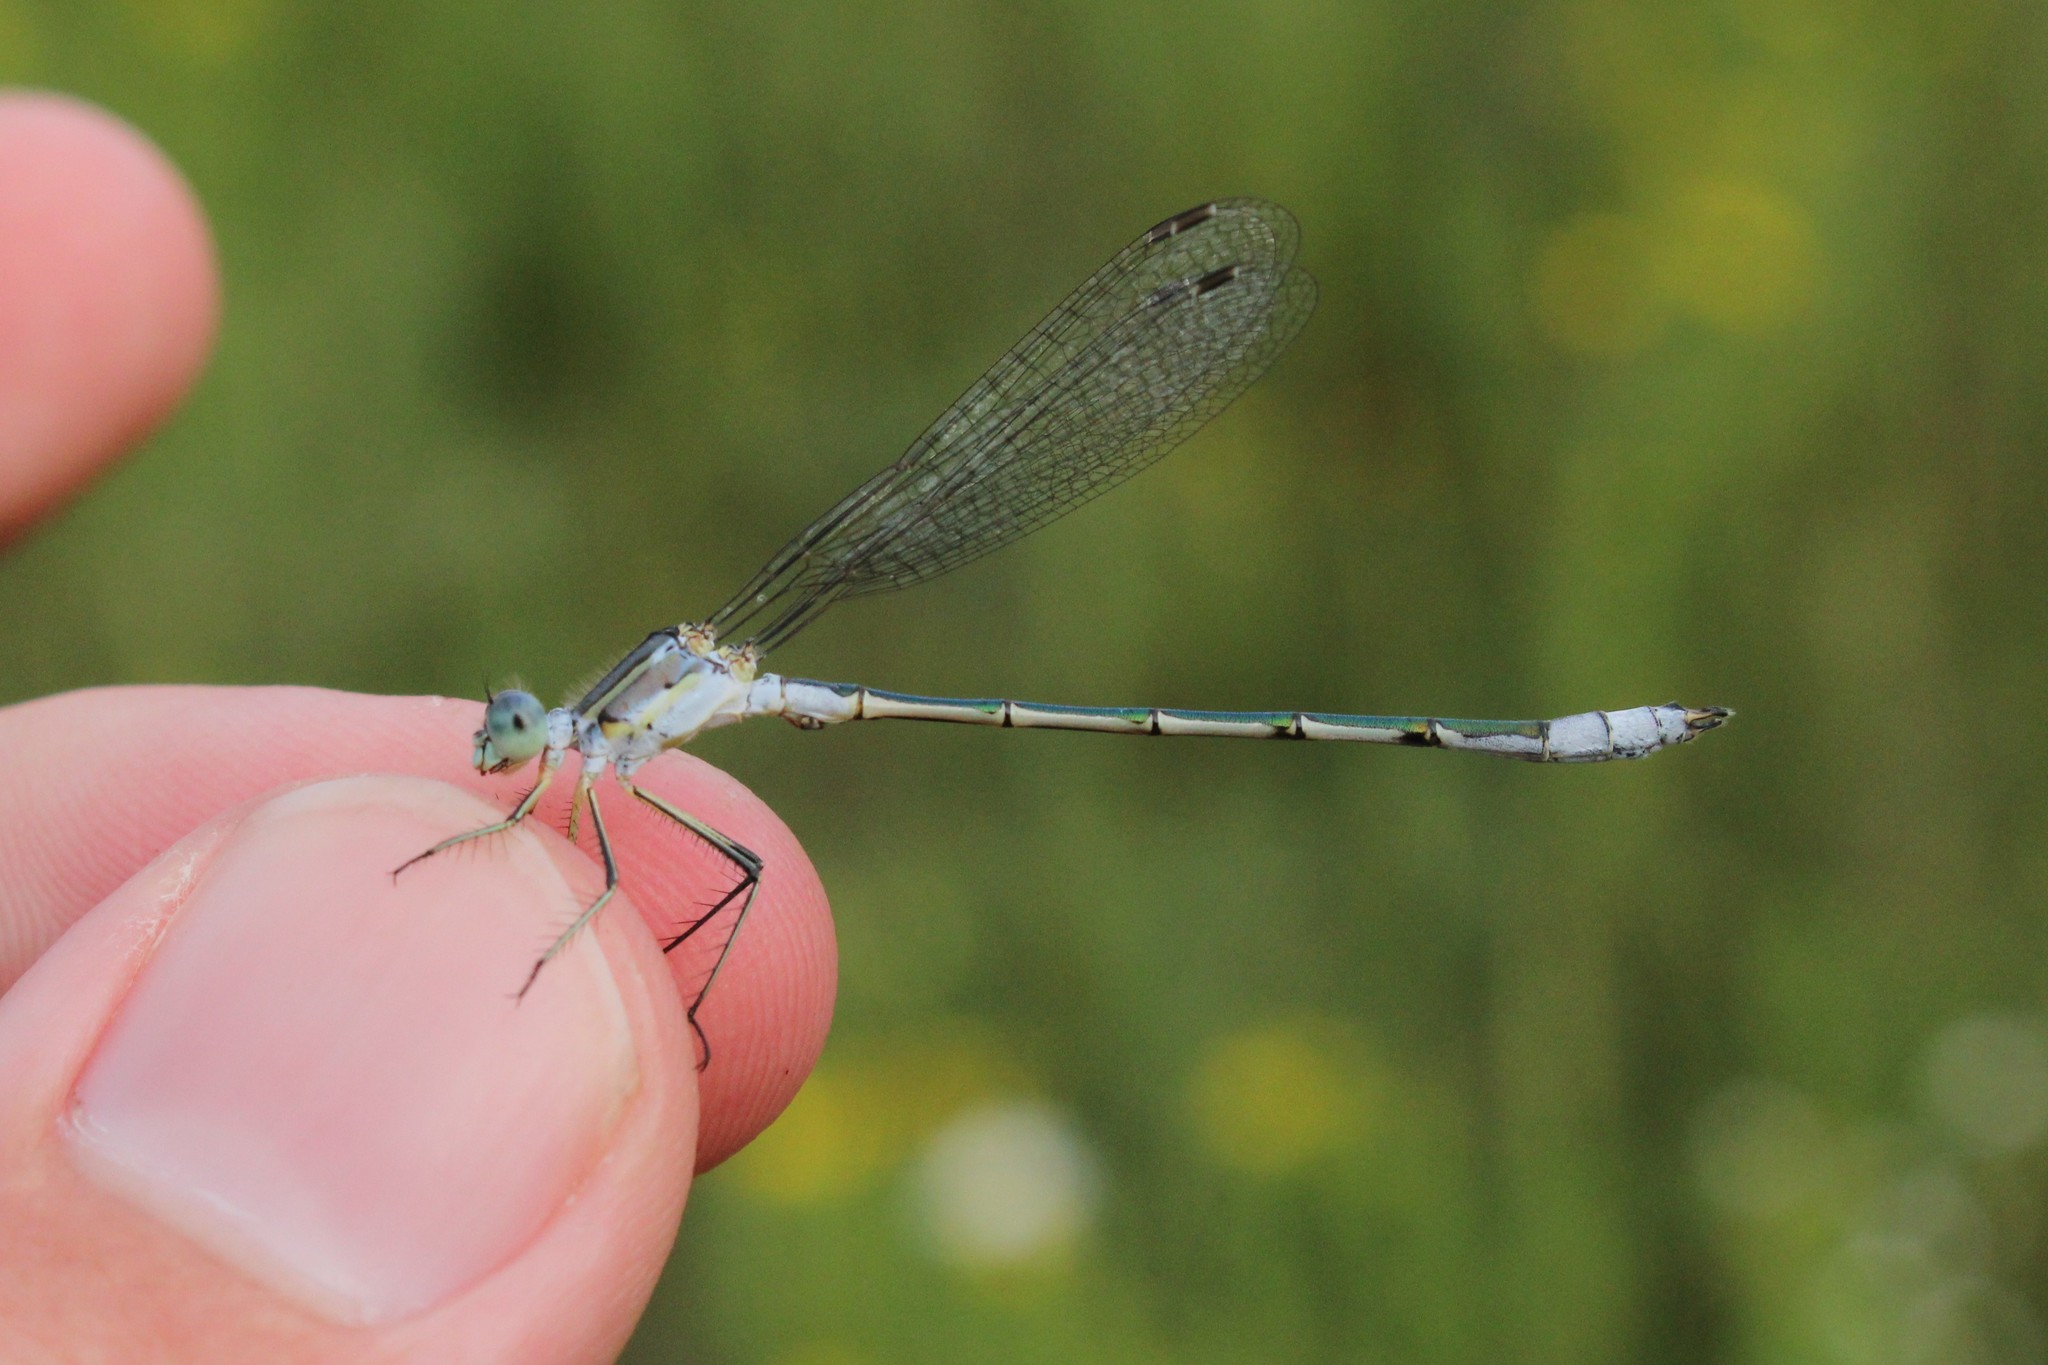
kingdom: Animalia
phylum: Arthropoda
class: Insecta
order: Odonata
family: Lestidae
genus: Lestes
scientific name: Lestes unguiculatus
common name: Lyre-tipped spreadwing
